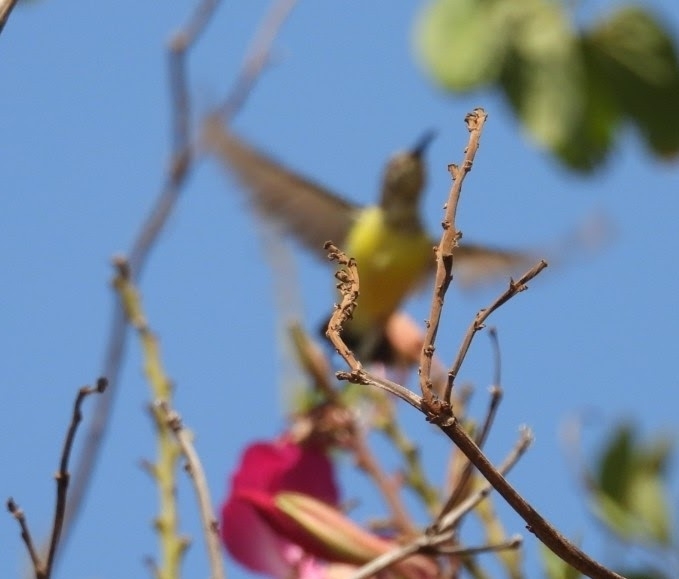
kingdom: Animalia
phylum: Chordata
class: Aves
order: Passeriformes
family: Nectariniidae
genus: Leptocoma
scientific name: Leptocoma zeylonica
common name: Purple-rumped sunbird
